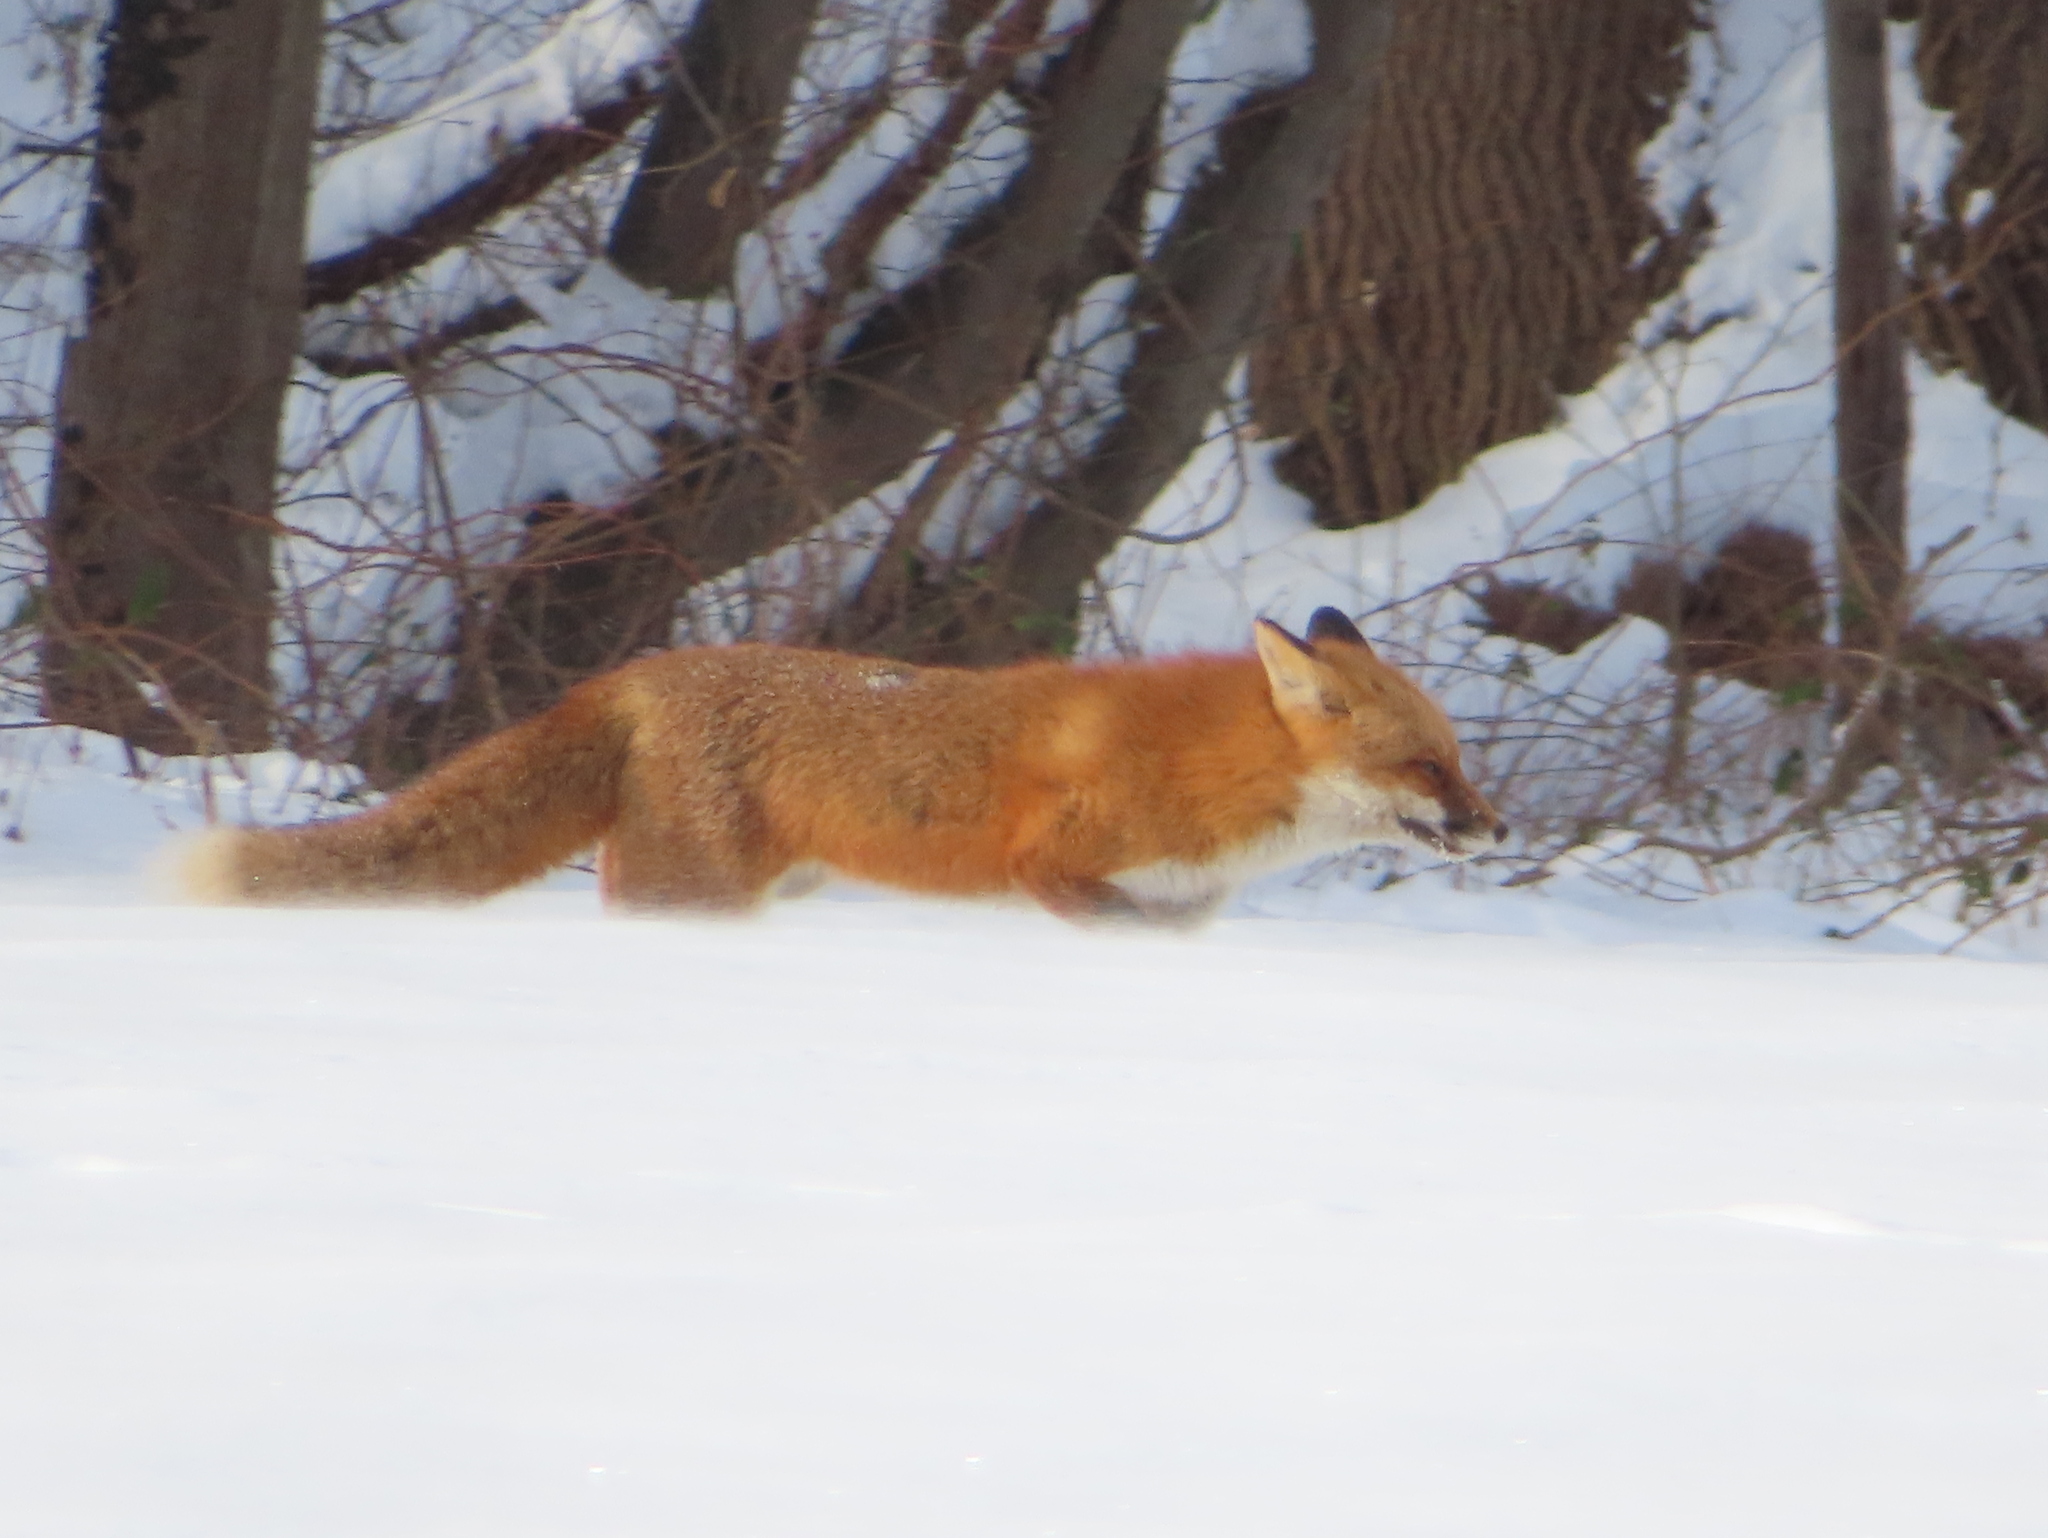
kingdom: Animalia
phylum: Chordata
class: Mammalia
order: Carnivora
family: Canidae
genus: Vulpes
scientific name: Vulpes vulpes
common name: Red fox
